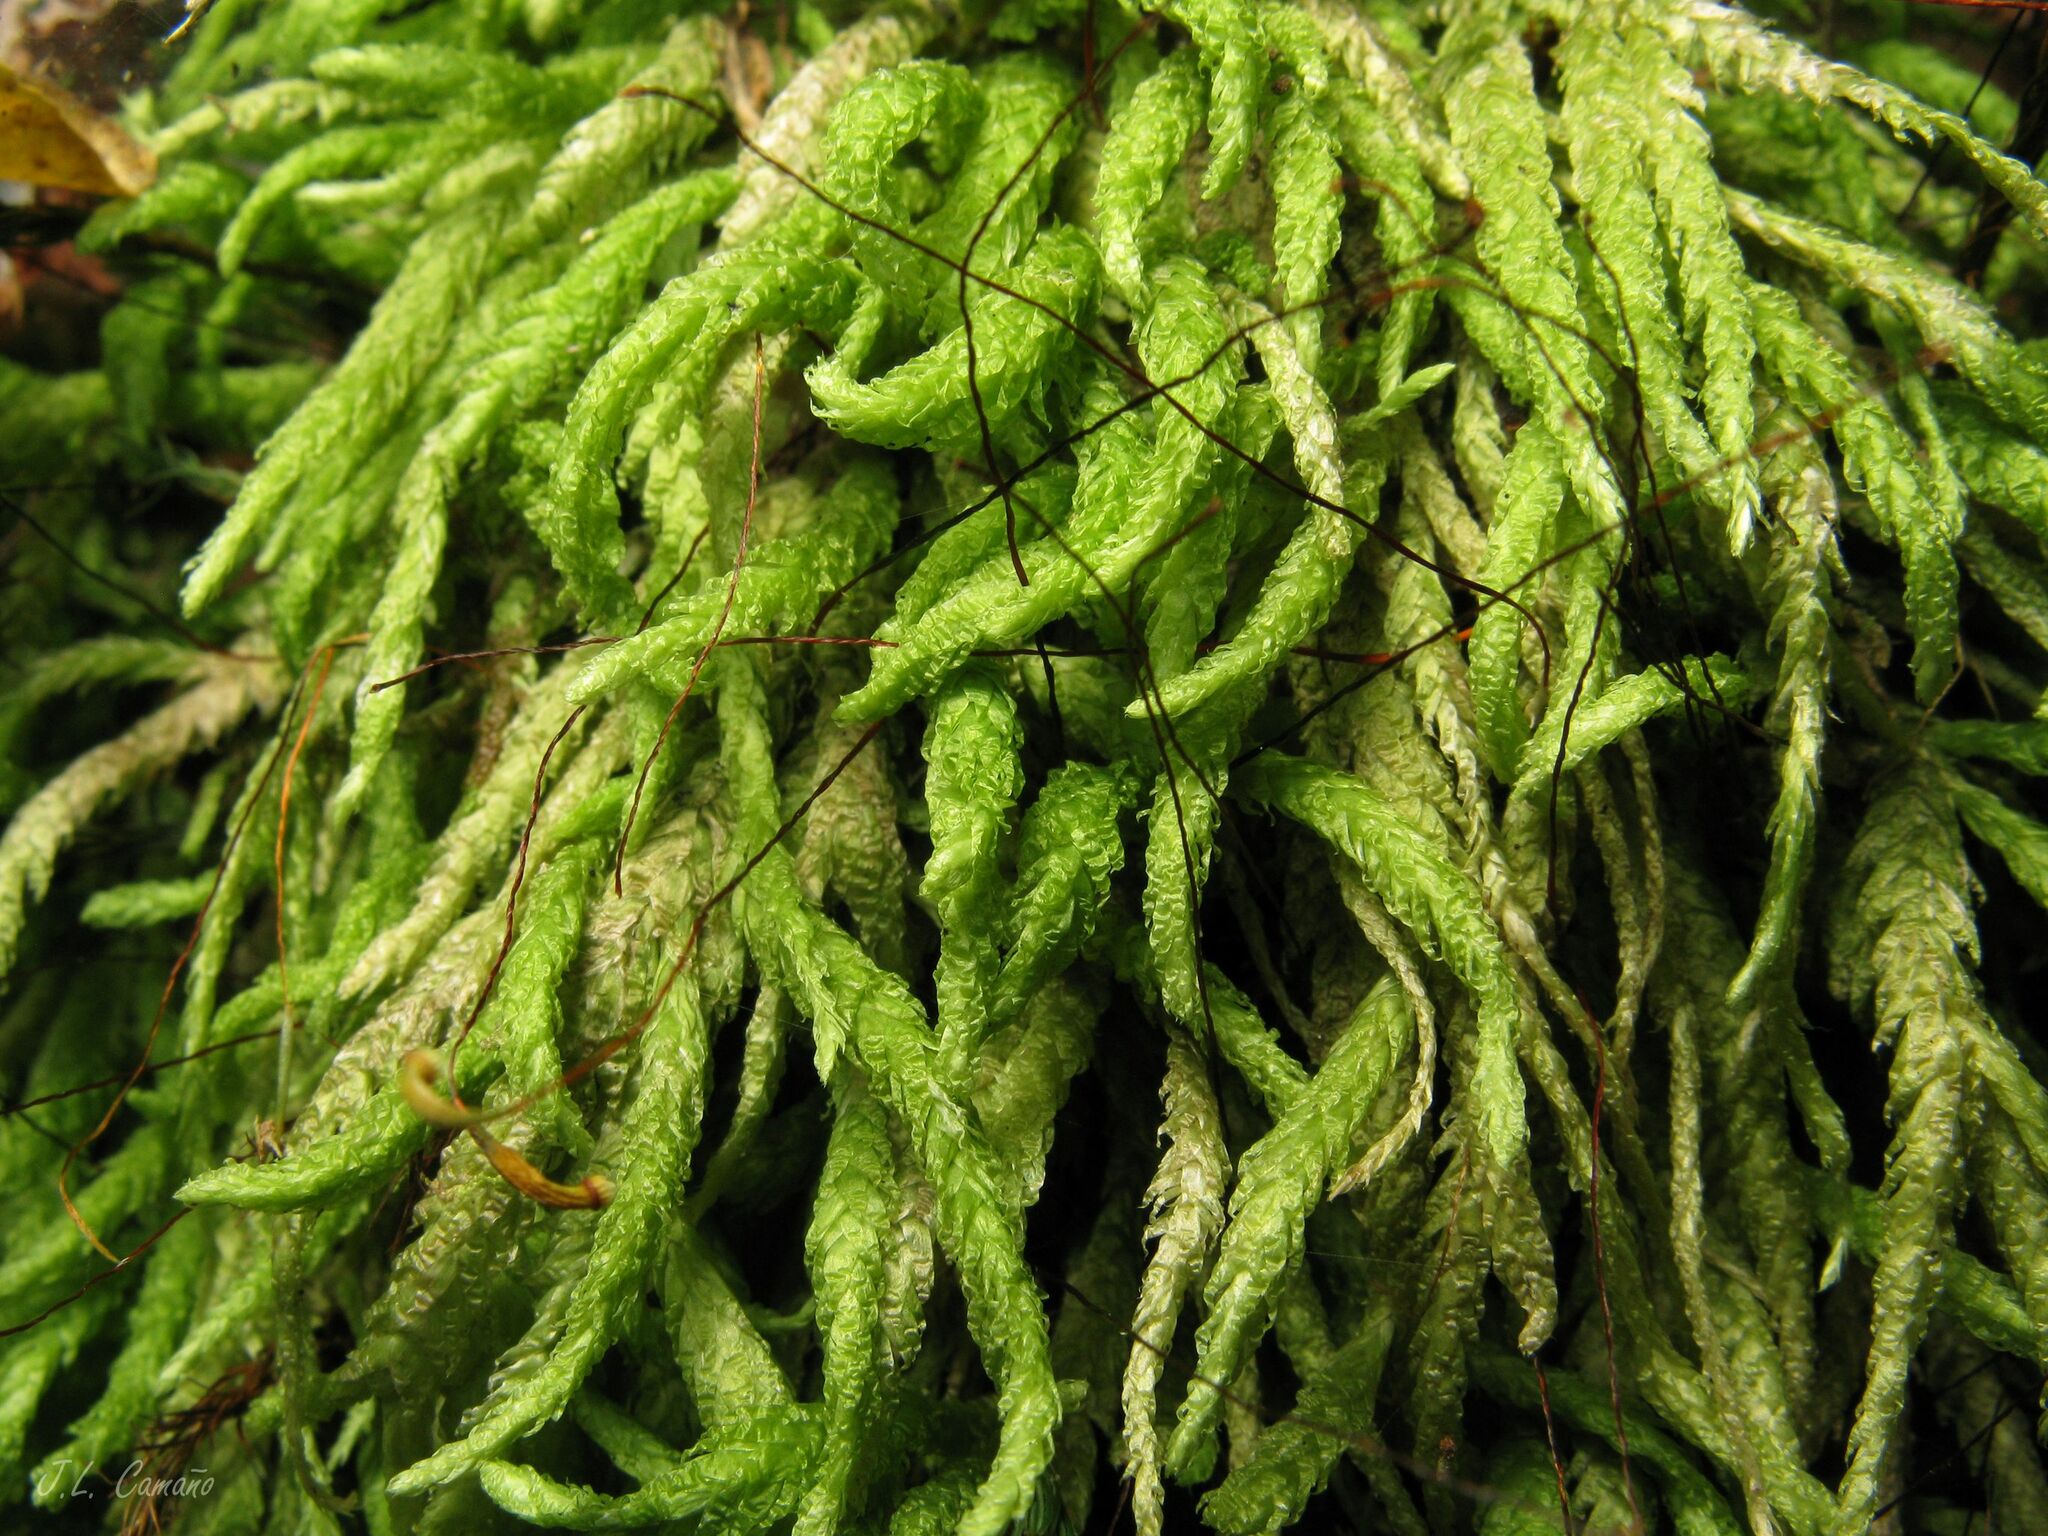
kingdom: Plantae
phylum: Bryophyta
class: Bryopsida
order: Hypnales
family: Plagiotheciaceae
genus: Plagiothecium
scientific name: Plagiothecium undulatum
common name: Waved silk-moss
